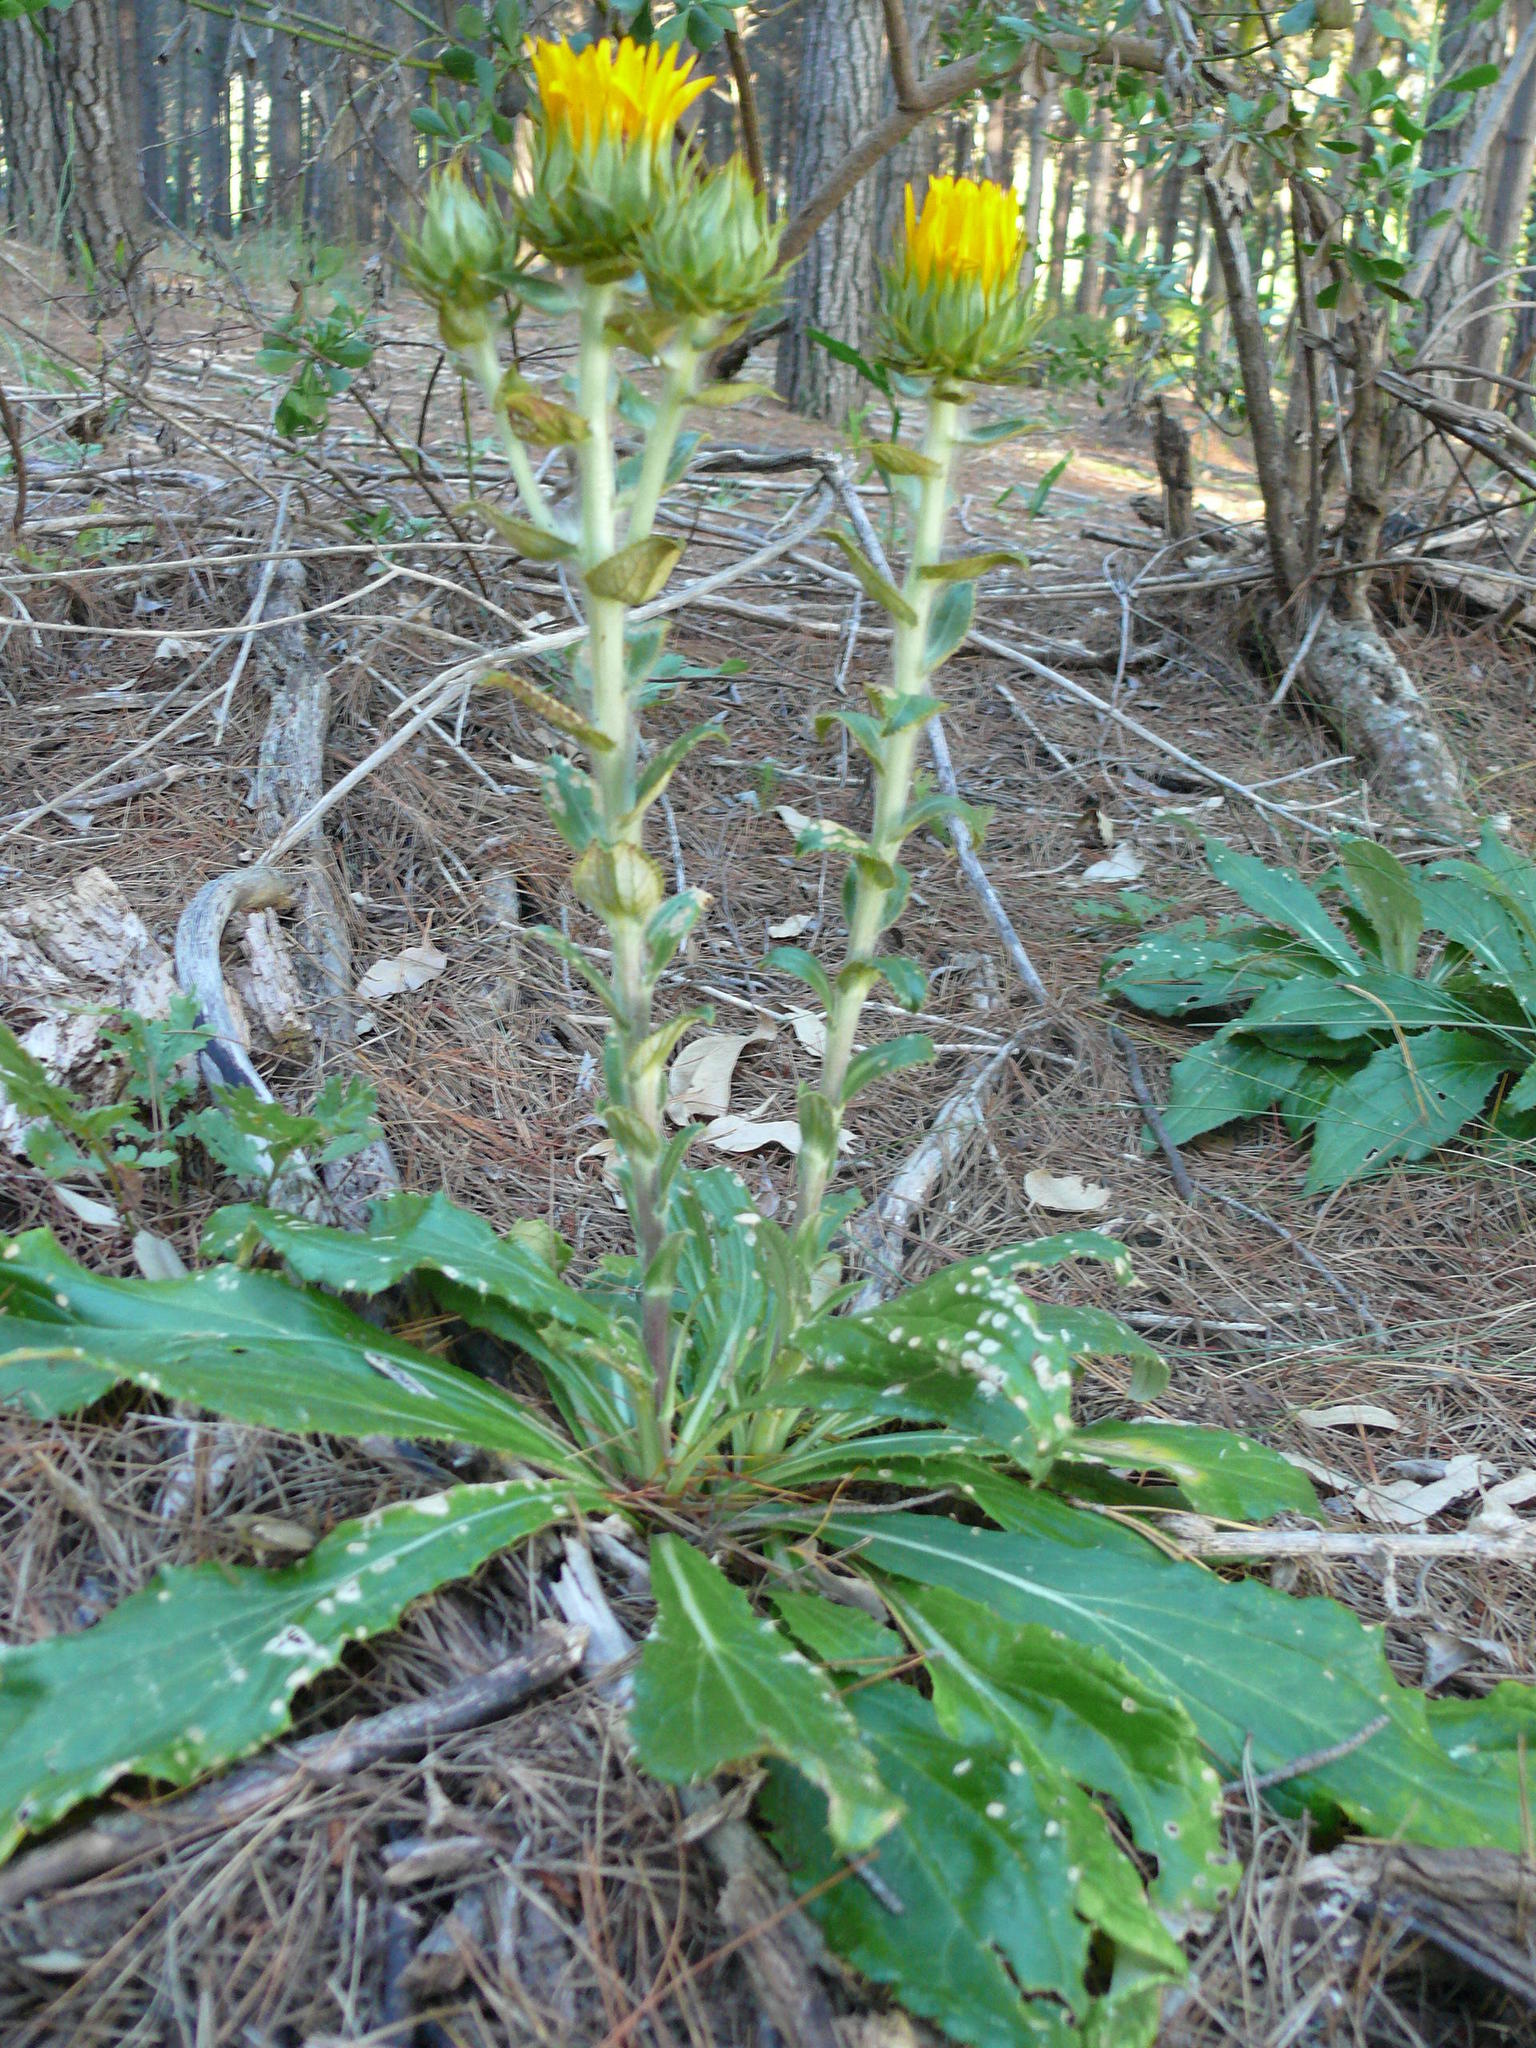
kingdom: Plantae
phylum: Tracheophyta
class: Magnoliopsida
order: Asterales
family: Asteraceae
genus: Berkheya
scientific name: Berkheya armata
